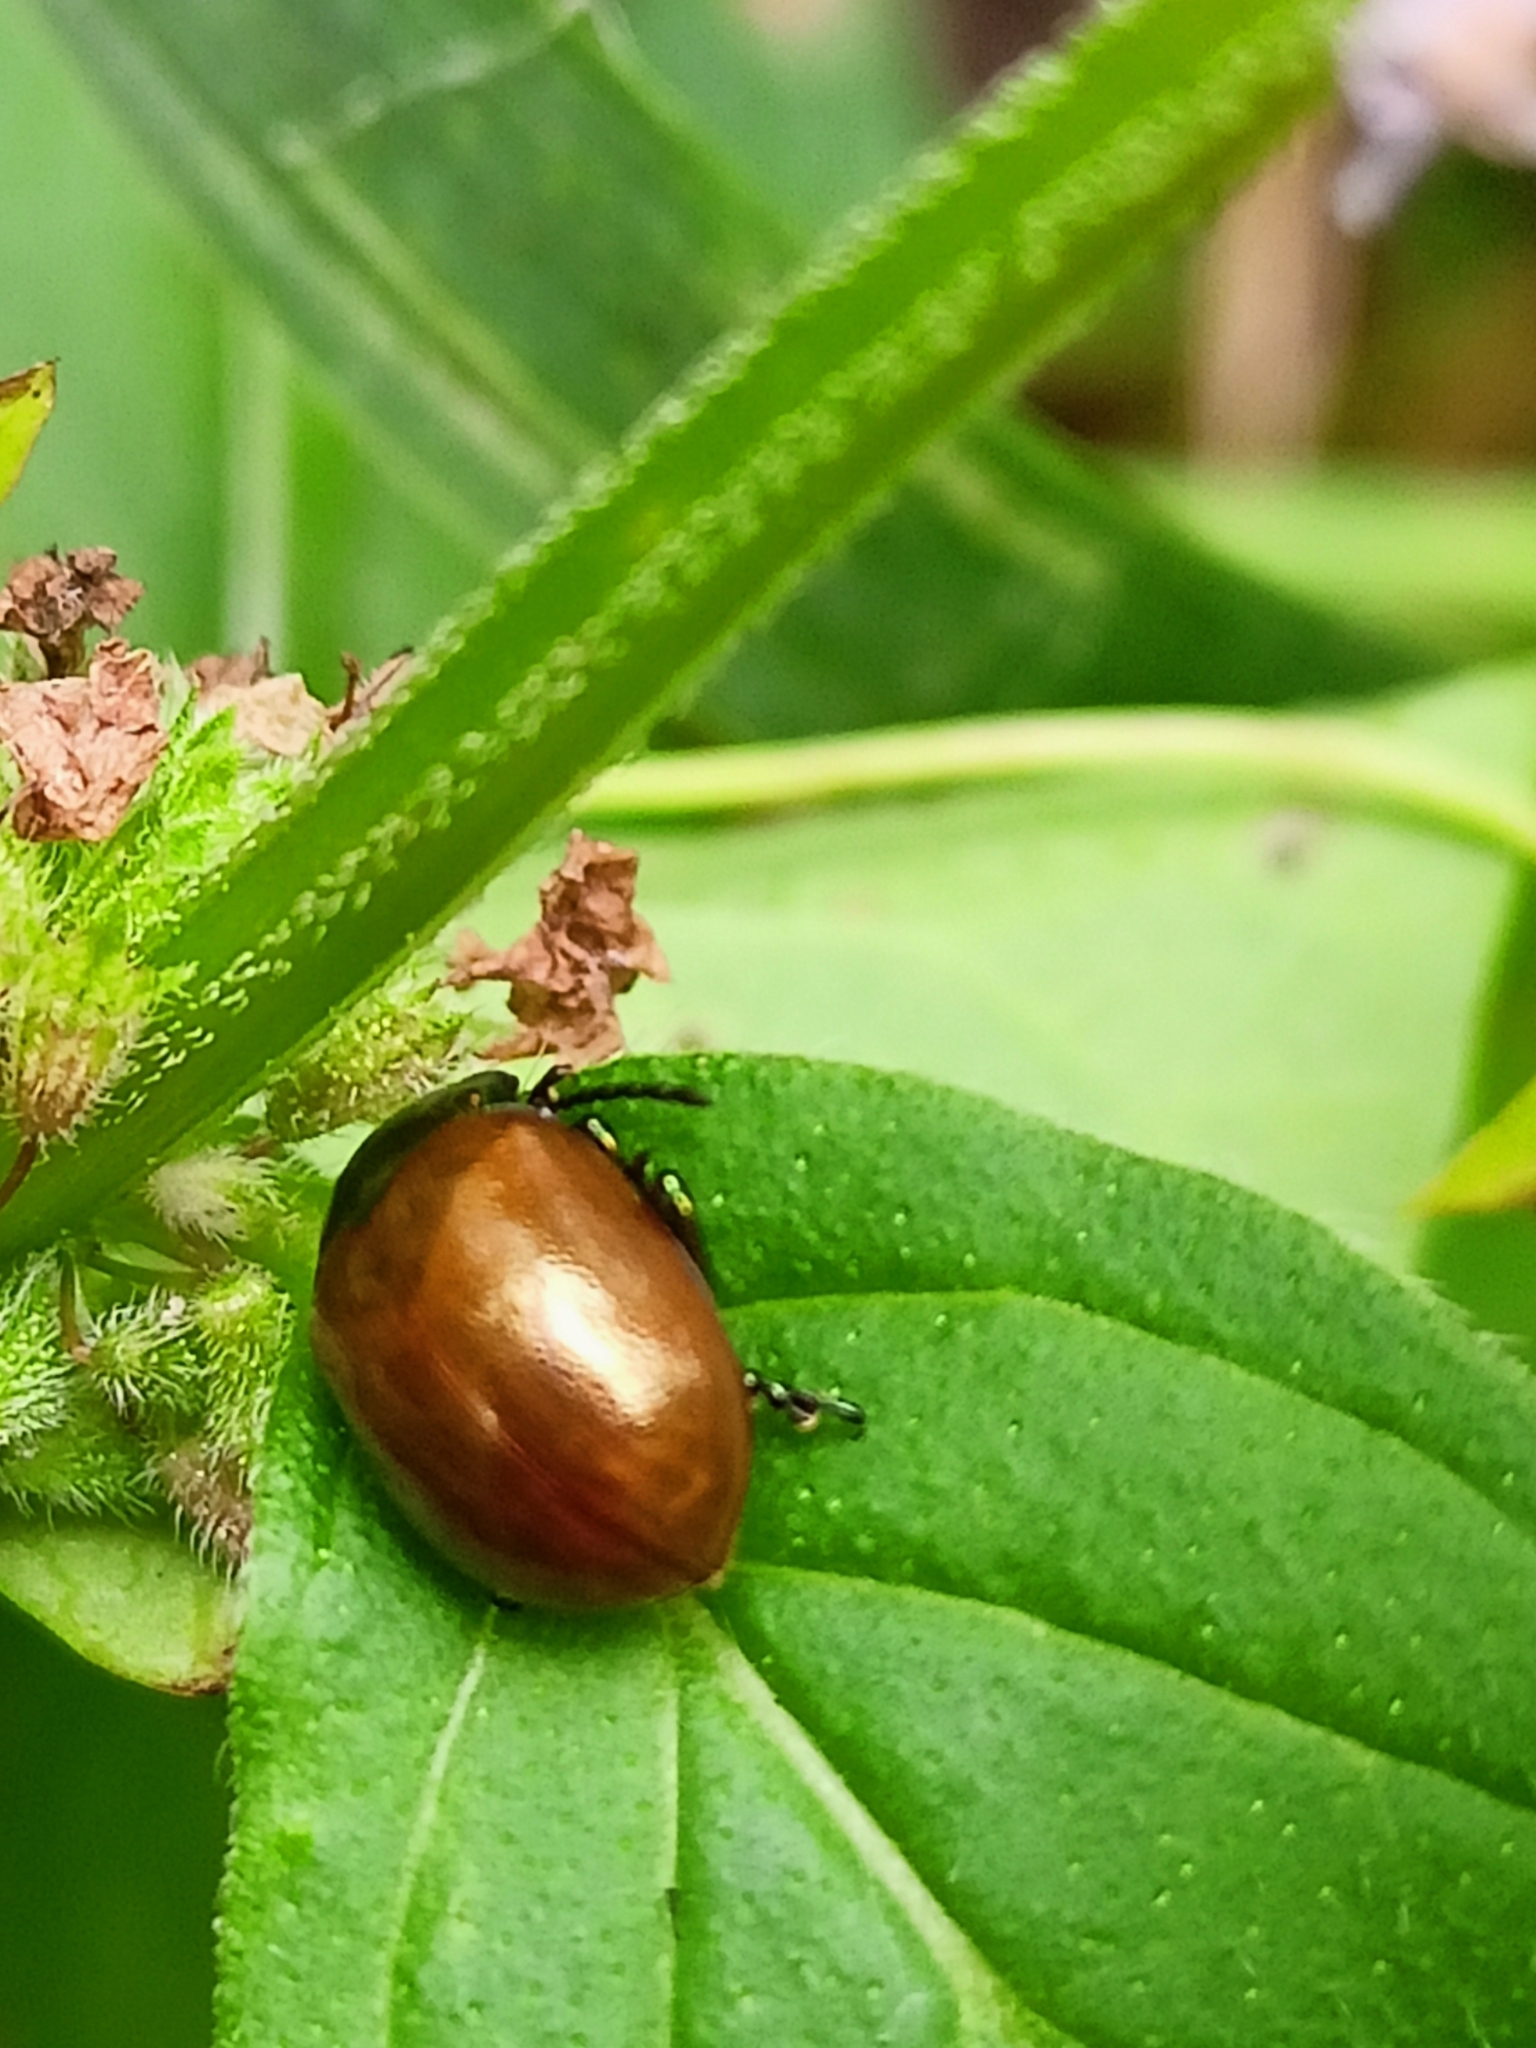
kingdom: Animalia
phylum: Arthropoda
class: Insecta
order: Coleoptera
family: Chrysomelidae
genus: Chrysomela
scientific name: Chrysomela polita
